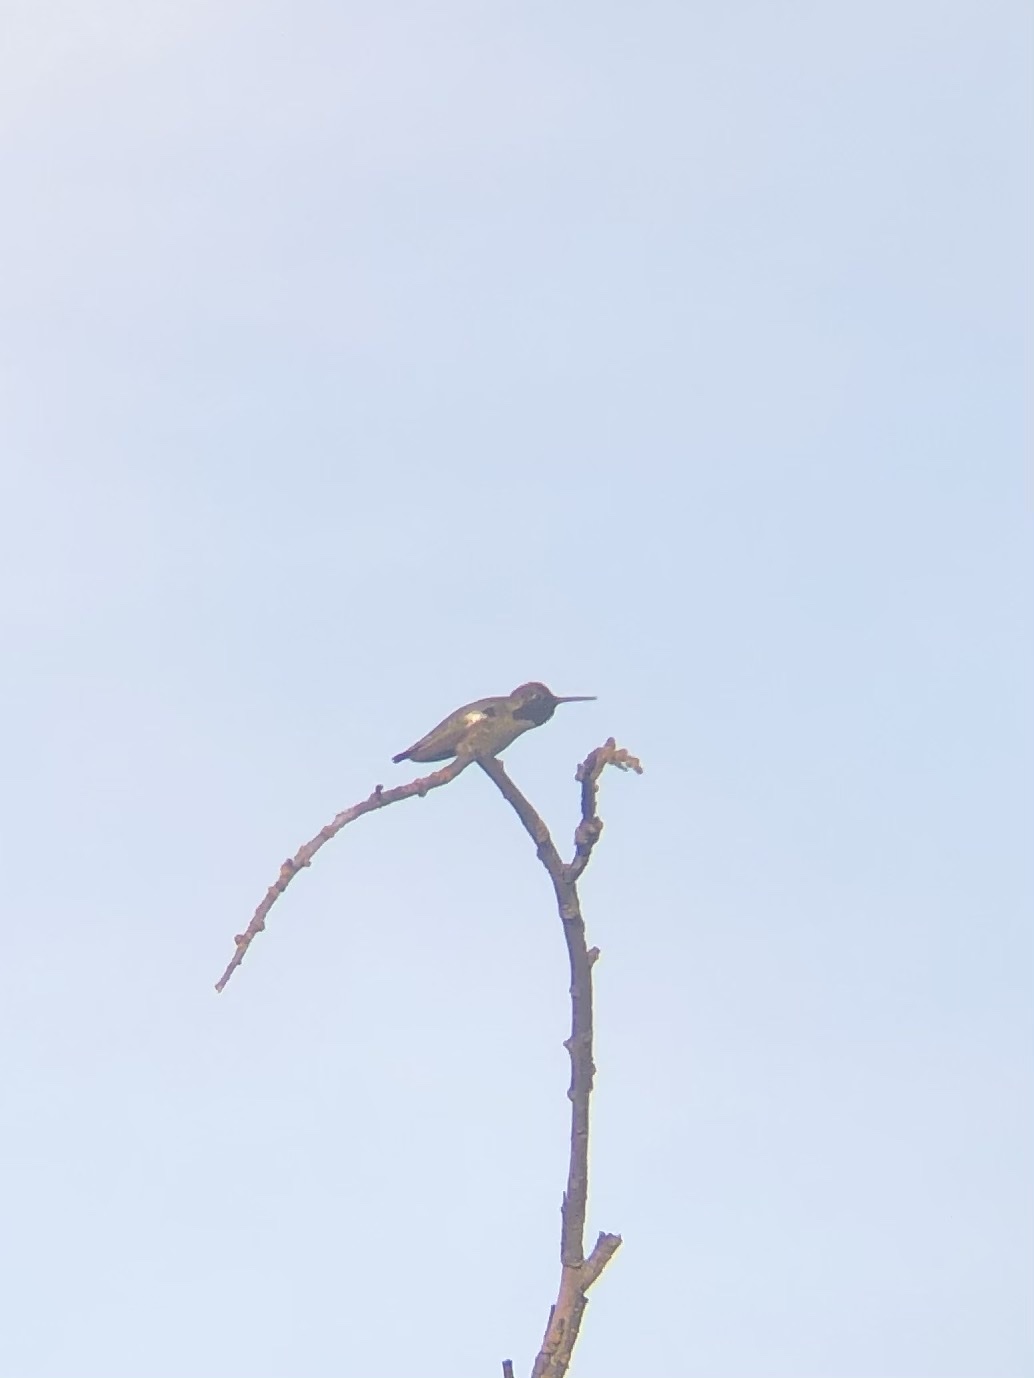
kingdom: Animalia
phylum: Chordata
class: Aves
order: Apodiformes
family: Trochilidae
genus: Calypte
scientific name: Calypte anna
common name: Anna's hummingbird
